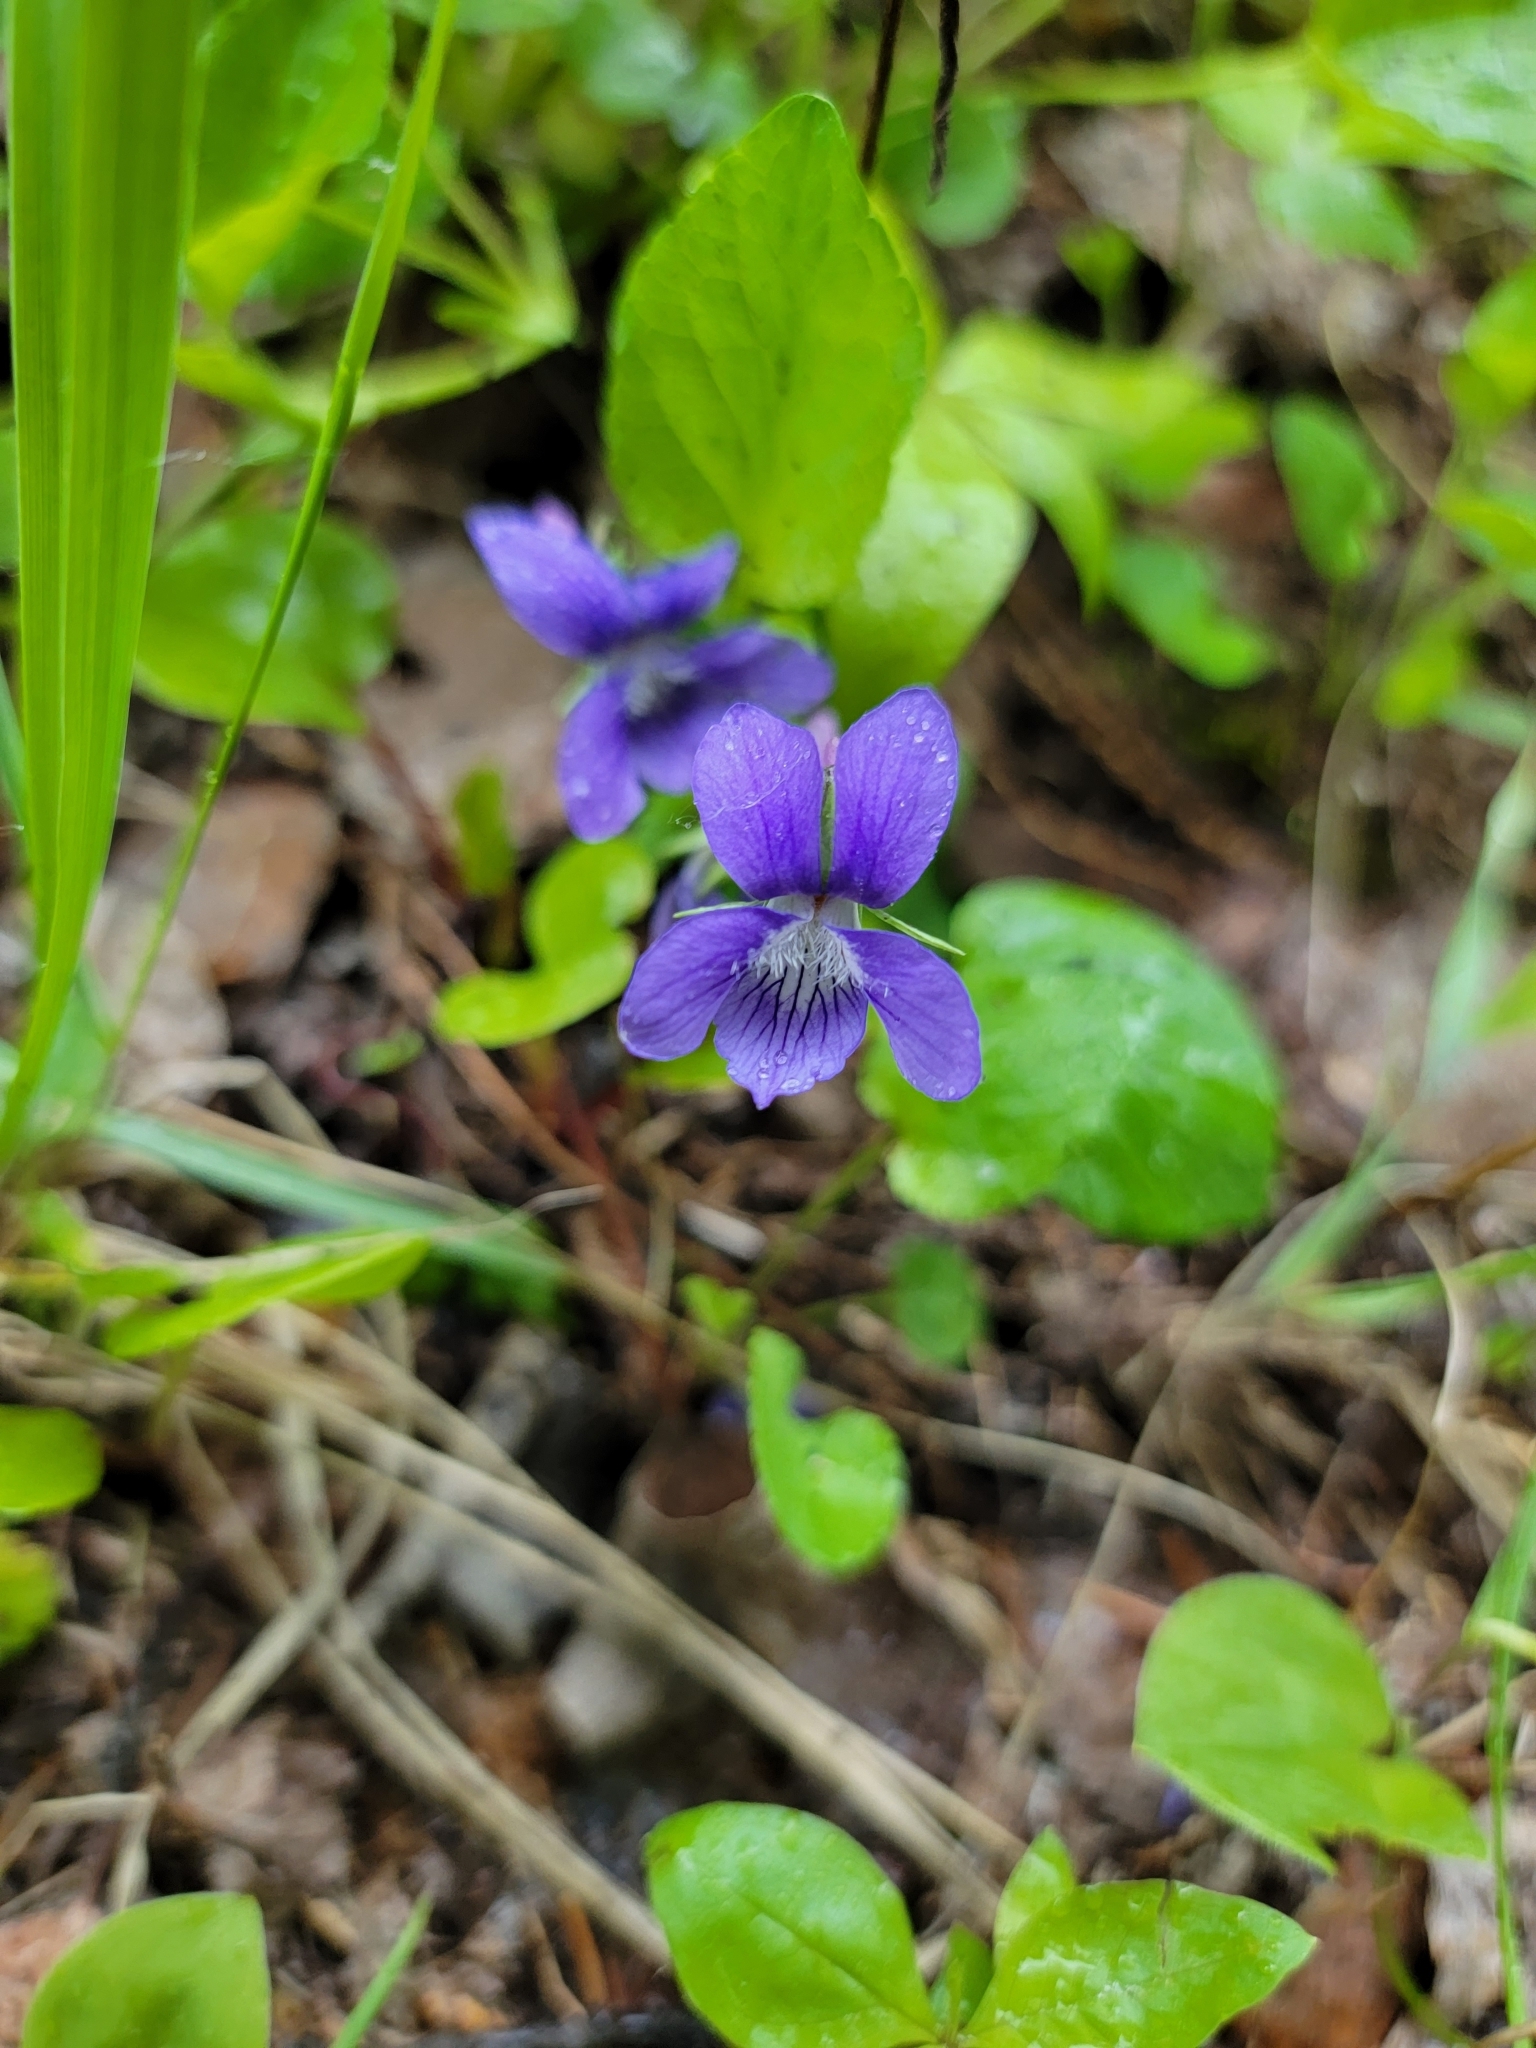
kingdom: Plantae
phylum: Tracheophyta
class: Magnoliopsida
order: Malpighiales
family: Violaceae
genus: Viola
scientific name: Viola adunca
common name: Sand violet
